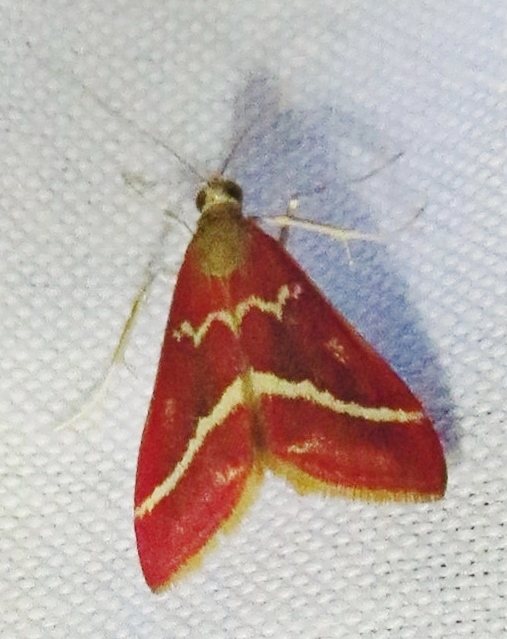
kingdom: Animalia
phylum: Arthropoda
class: Insecta
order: Lepidoptera
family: Crambidae
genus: Pyrausta
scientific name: Pyrausta volupialis
